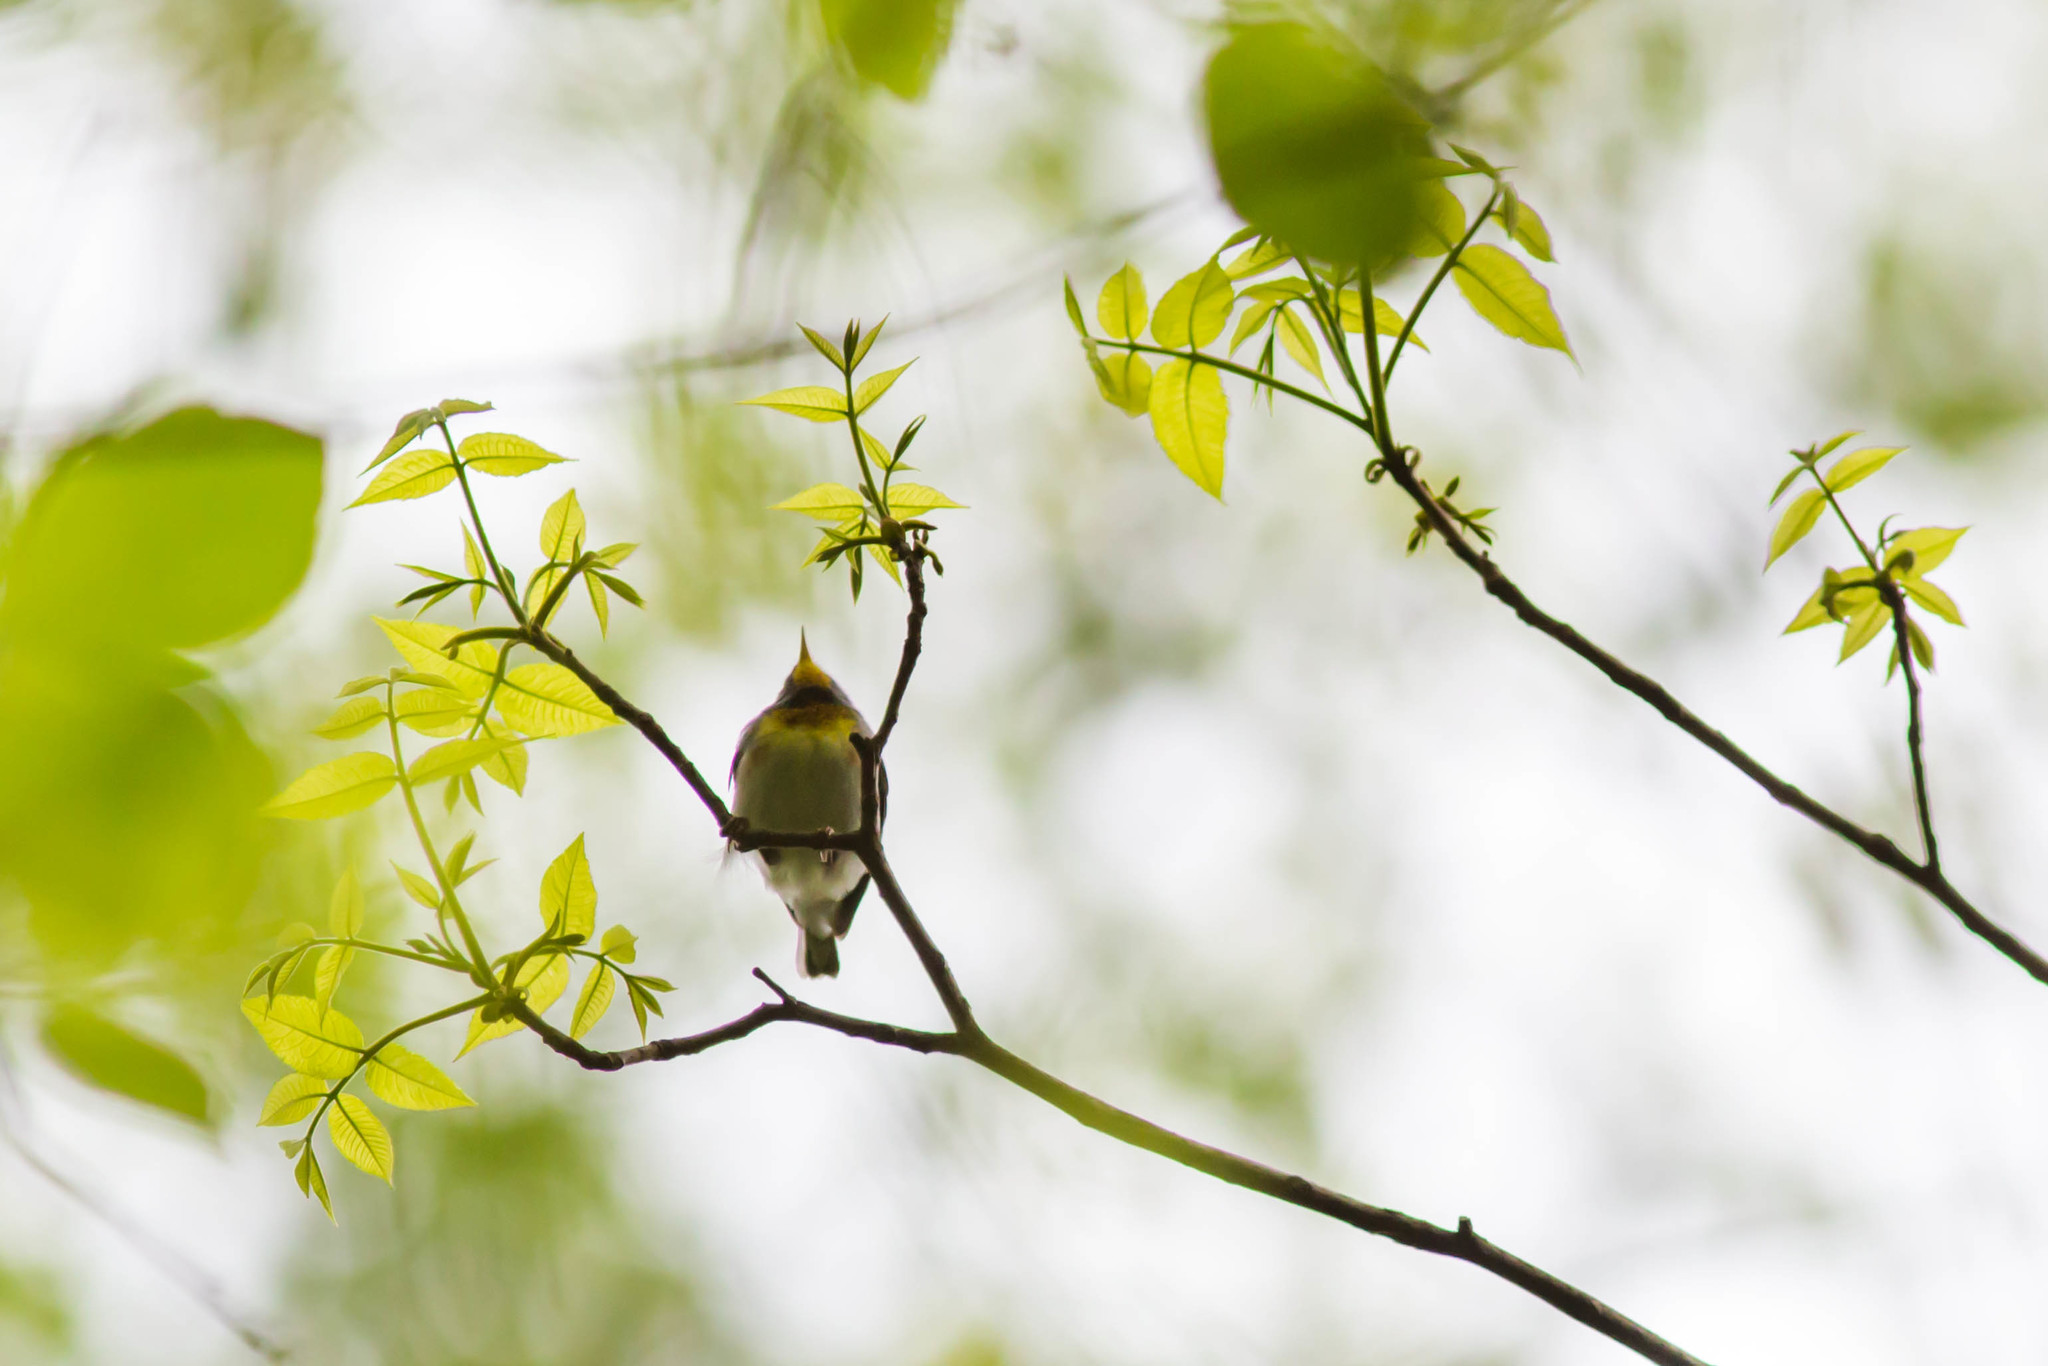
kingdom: Animalia
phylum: Chordata
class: Aves
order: Passeriformes
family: Parulidae
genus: Setophaga
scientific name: Setophaga americana
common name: Northern parula
